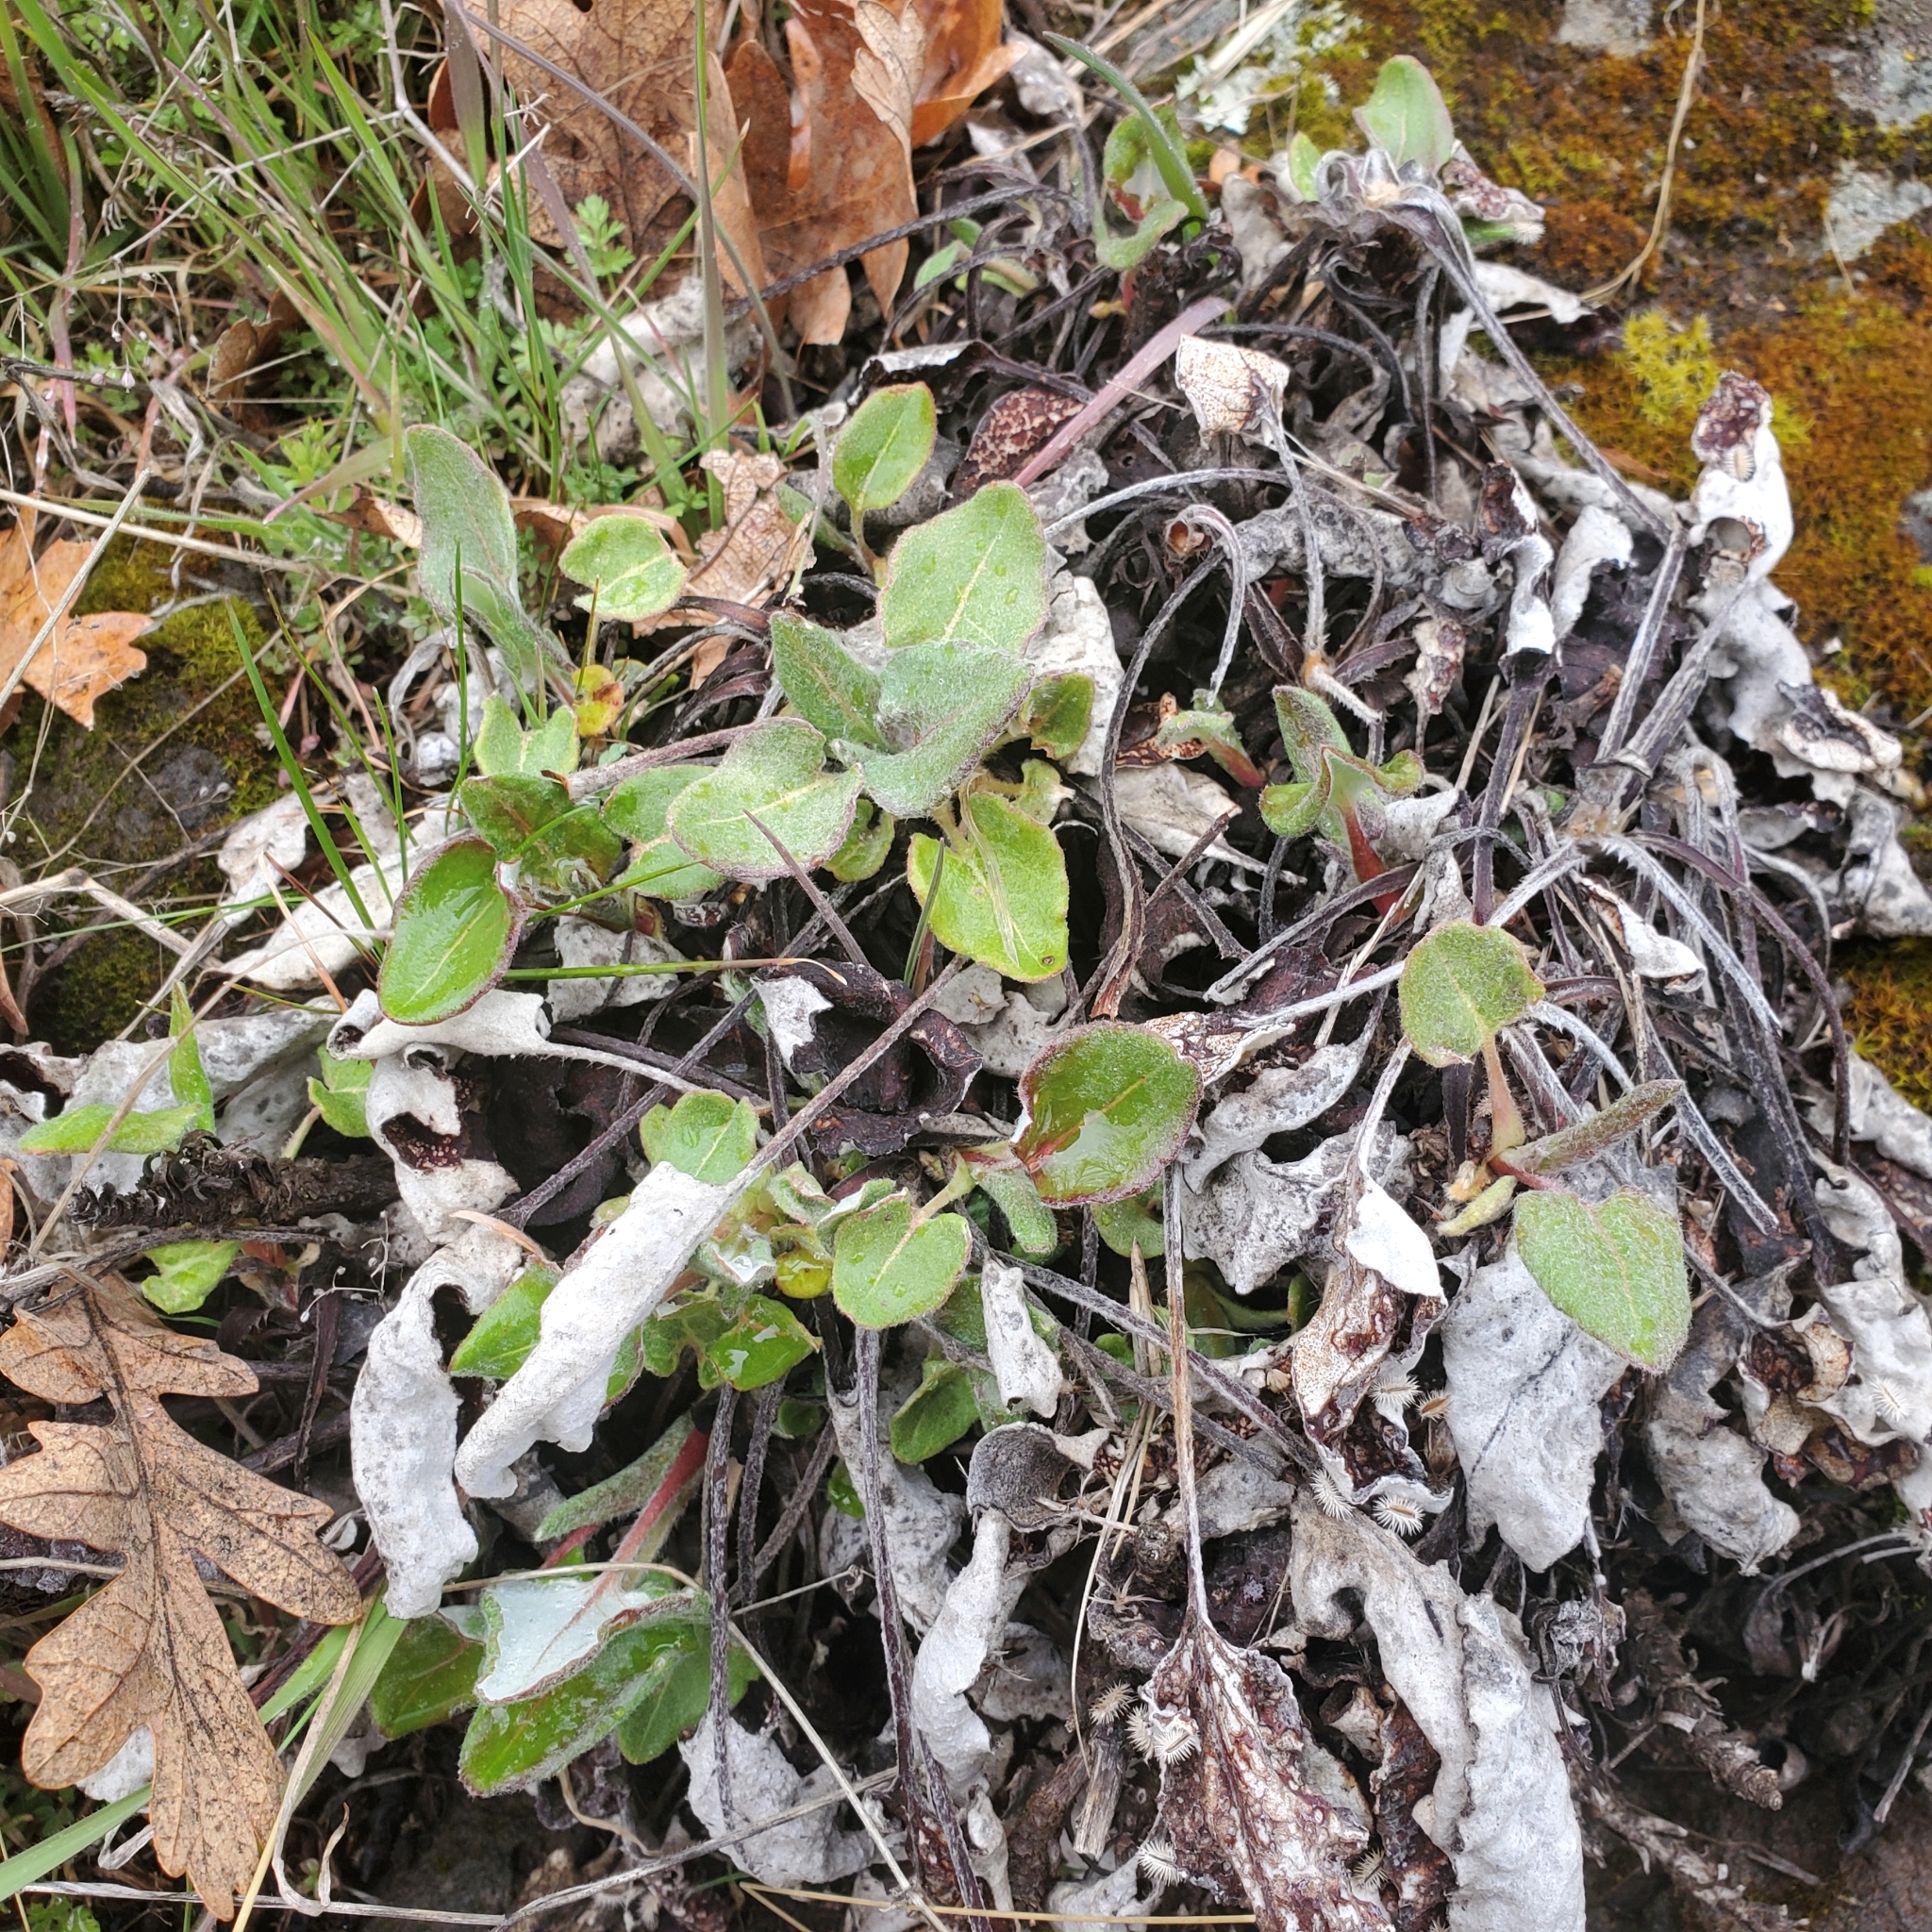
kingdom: Plantae
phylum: Tracheophyta
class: Magnoliopsida
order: Caryophyllales
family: Polygonaceae
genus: Eriogonum
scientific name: Eriogonum compositum
